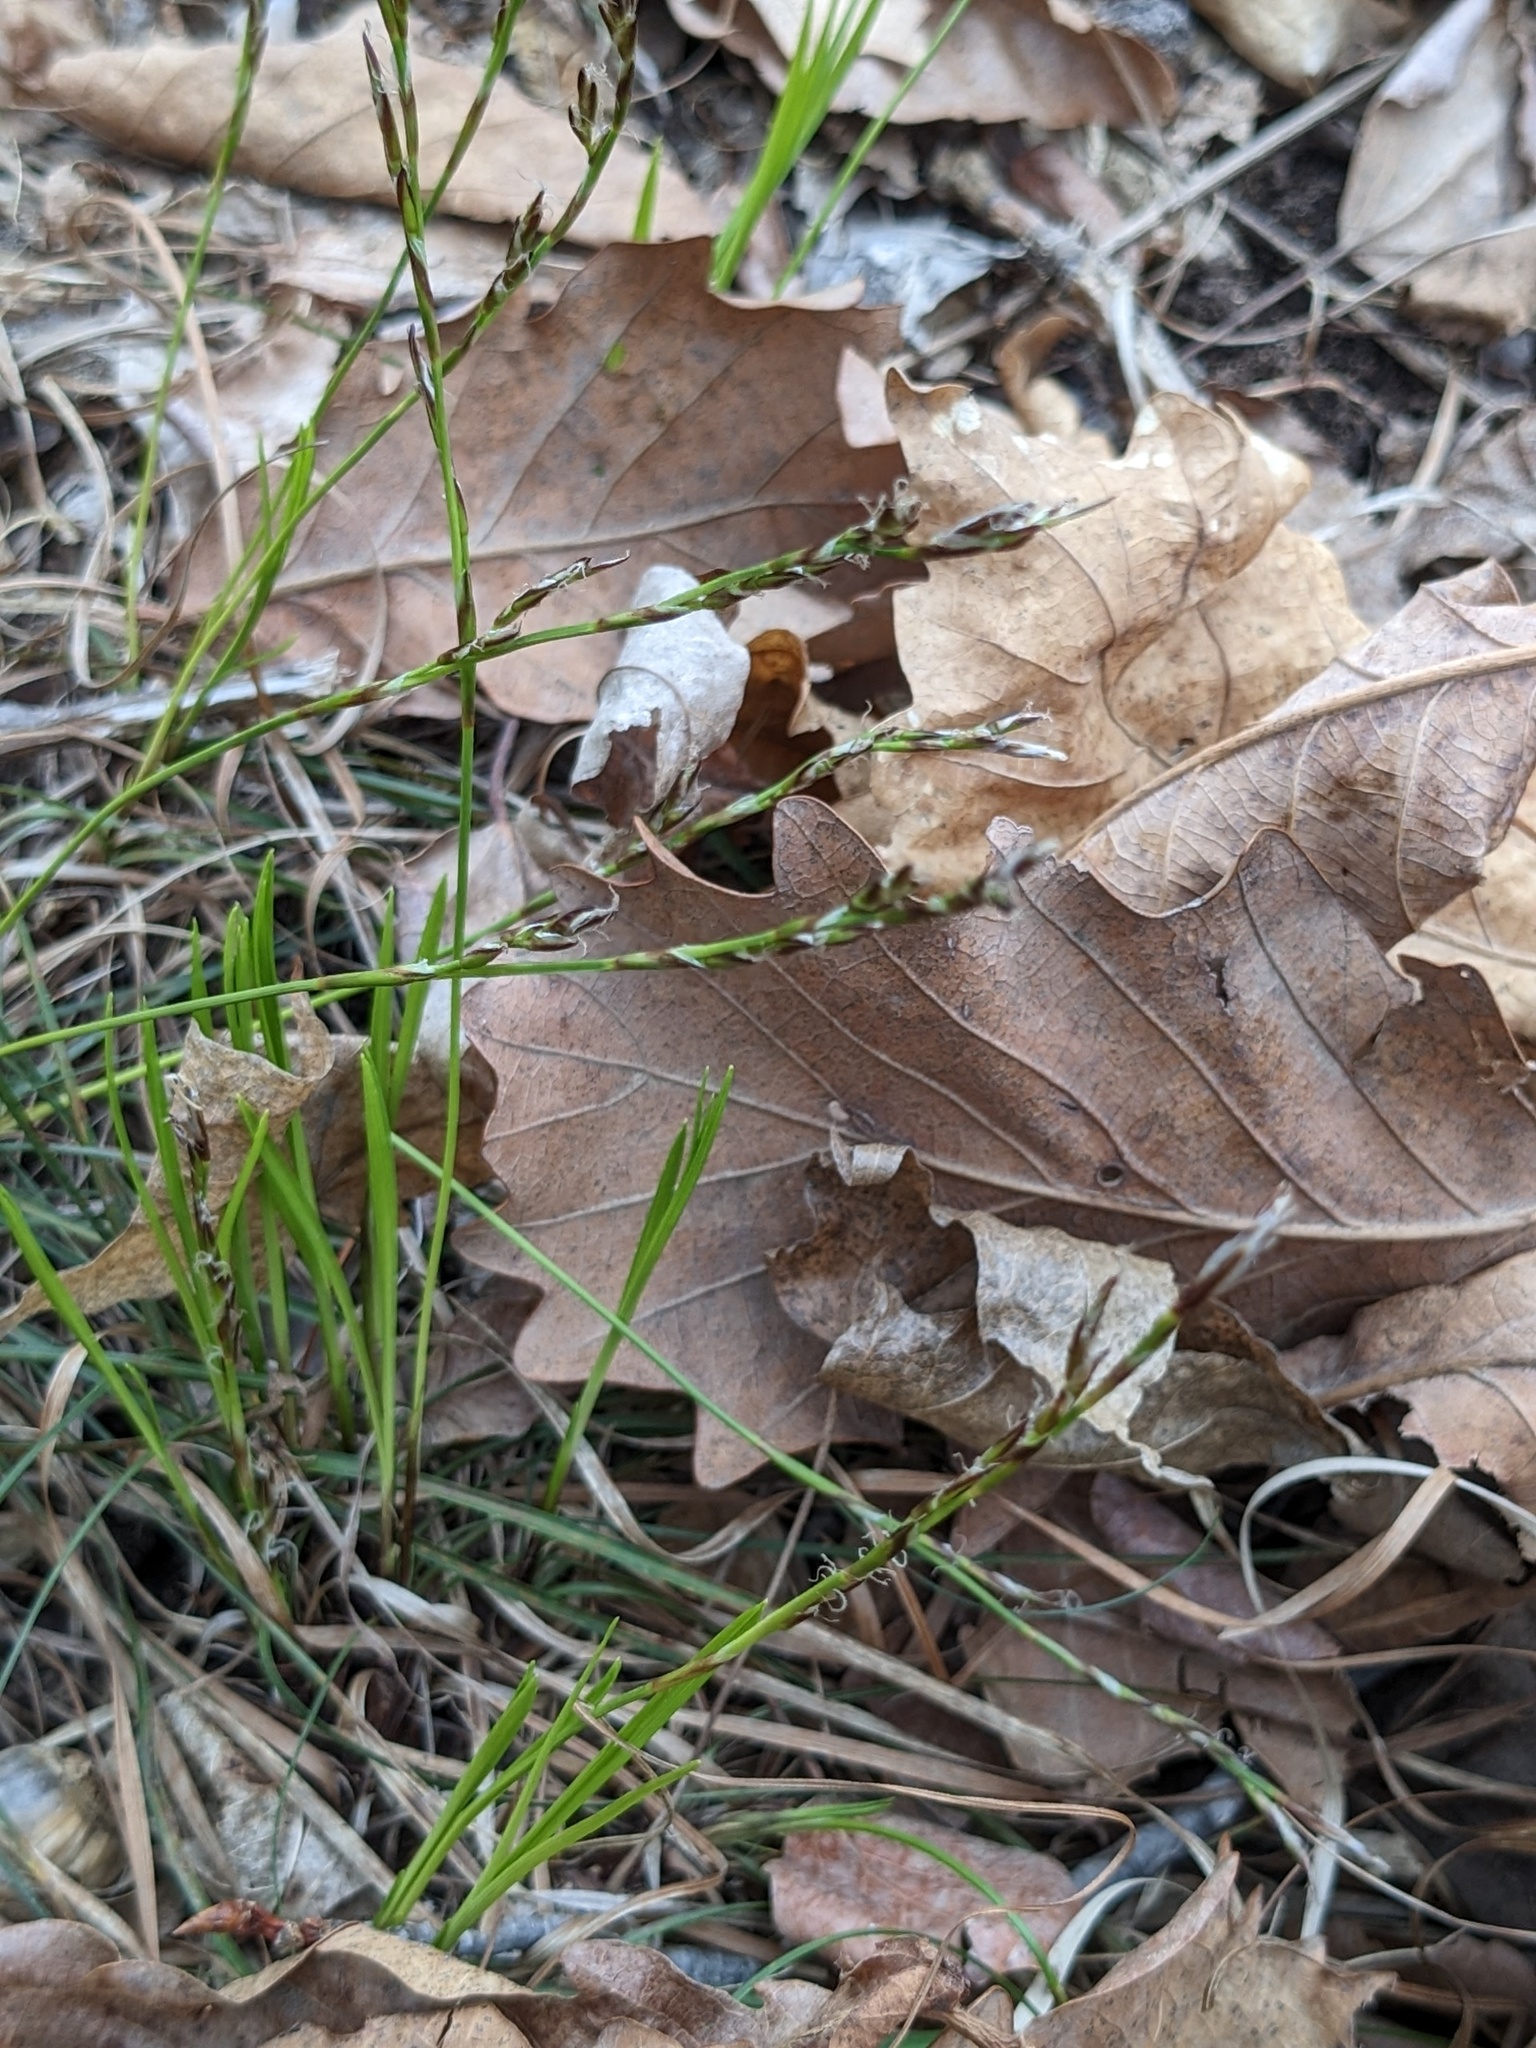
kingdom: Plantae
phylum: Tracheophyta
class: Liliopsida
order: Poales
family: Cyperaceae
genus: Carex
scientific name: Carex lanceolata
